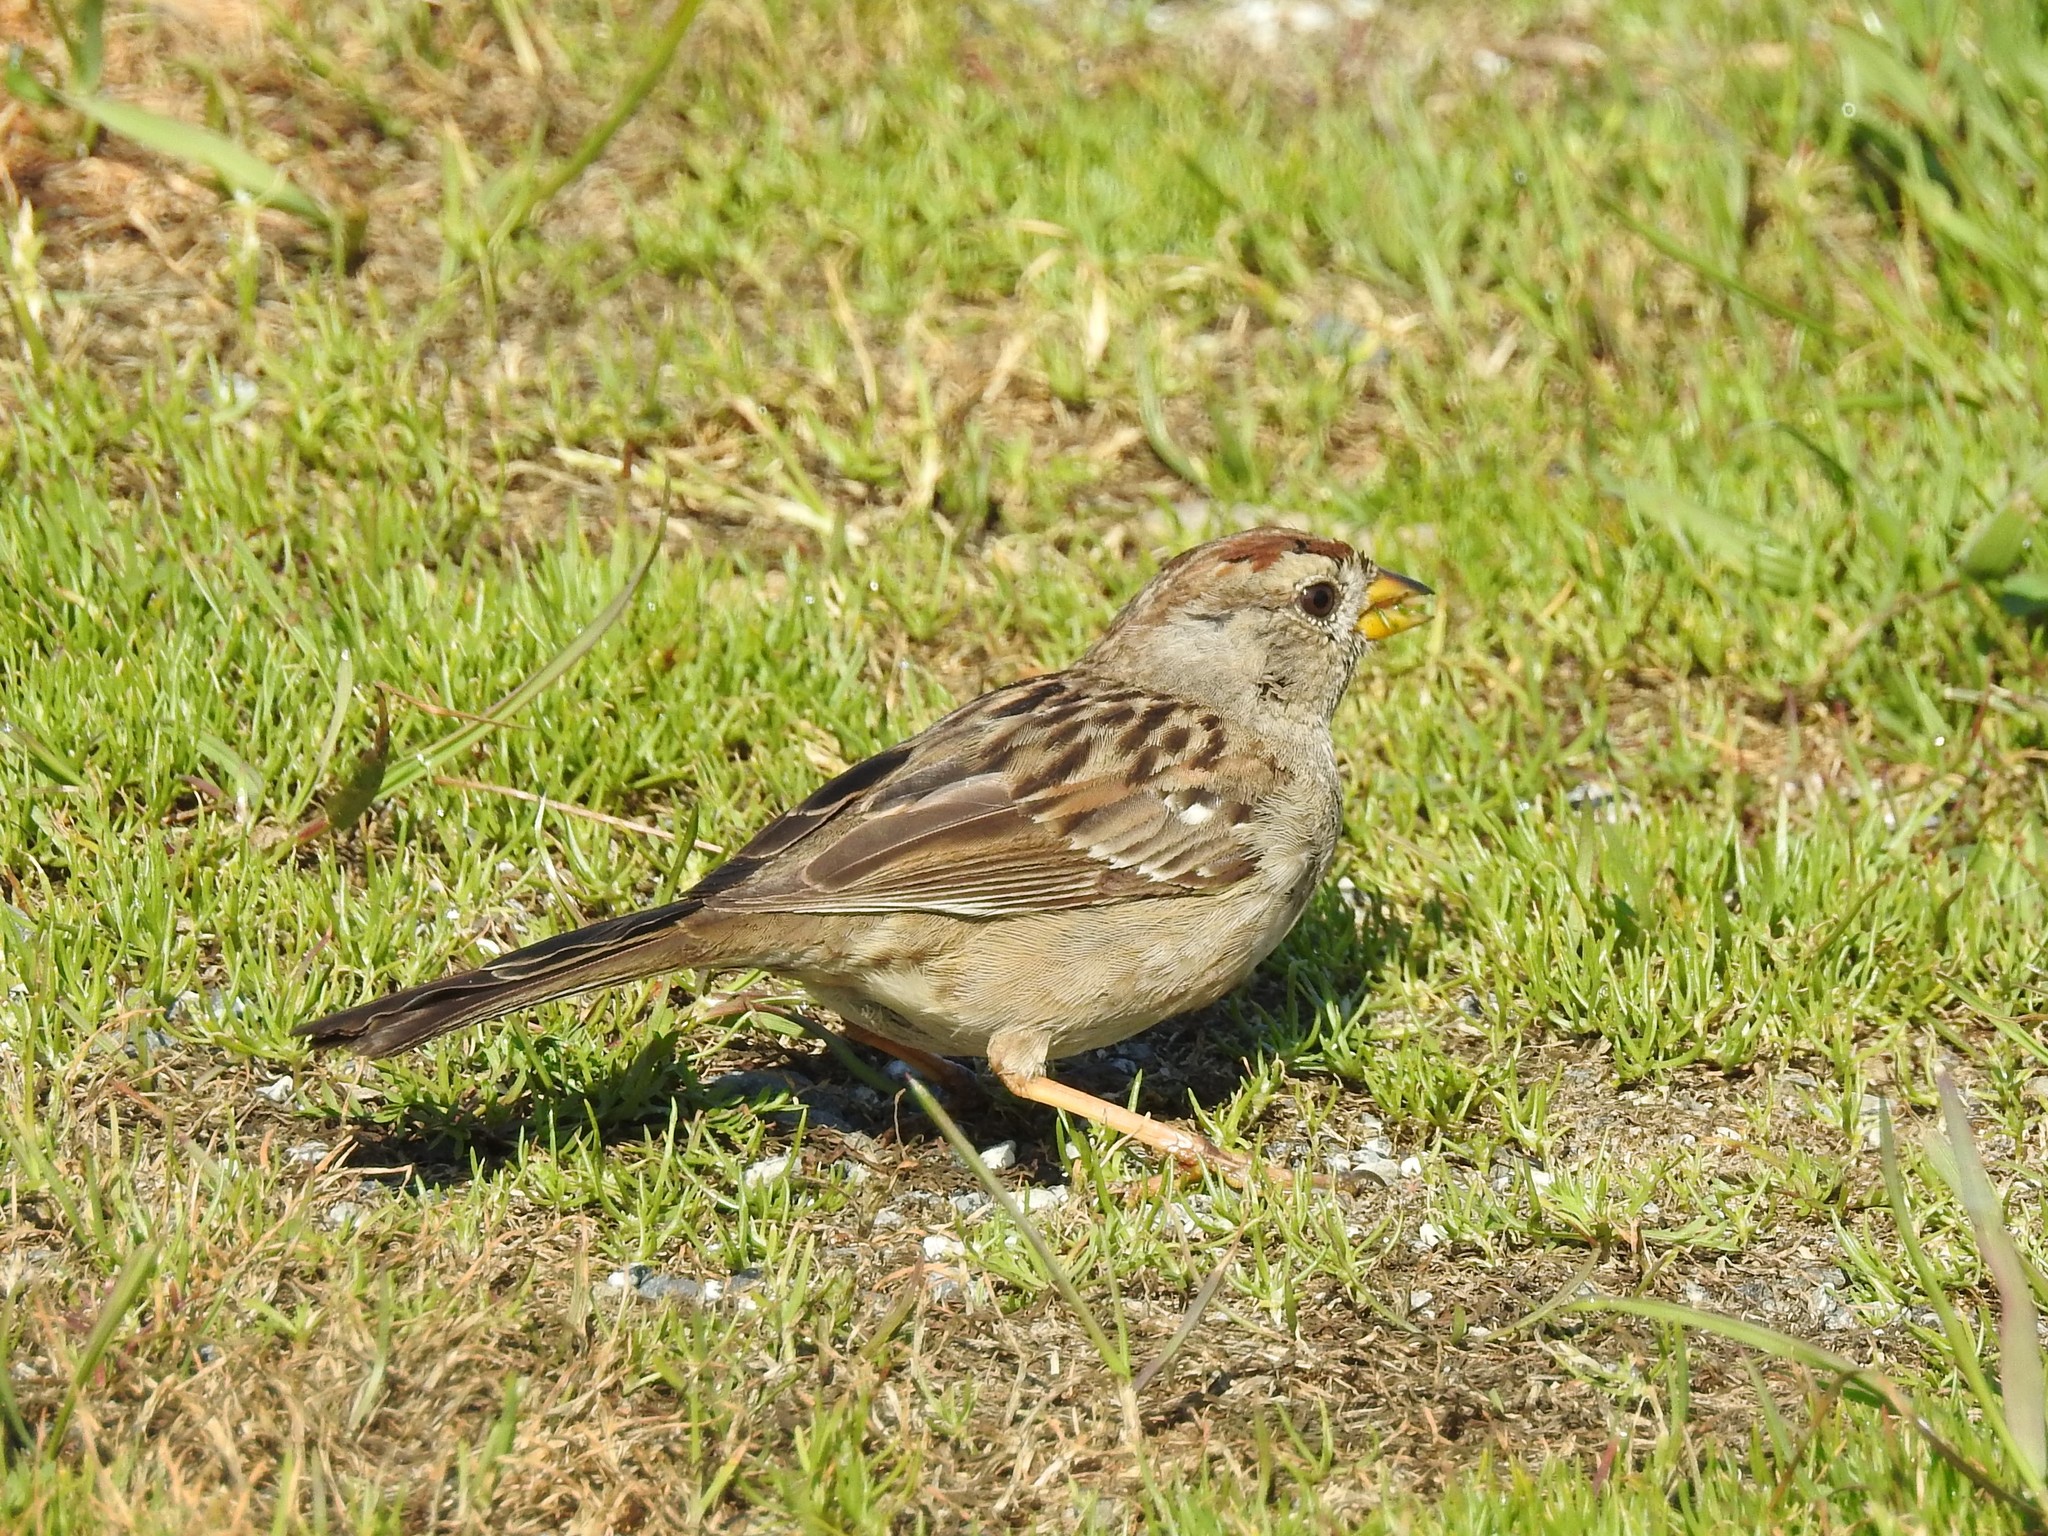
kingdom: Animalia
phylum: Chordata
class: Aves
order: Passeriformes
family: Passerellidae
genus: Zonotrichia
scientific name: Zonotrichia leucophrys
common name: White-crowned sparrow
